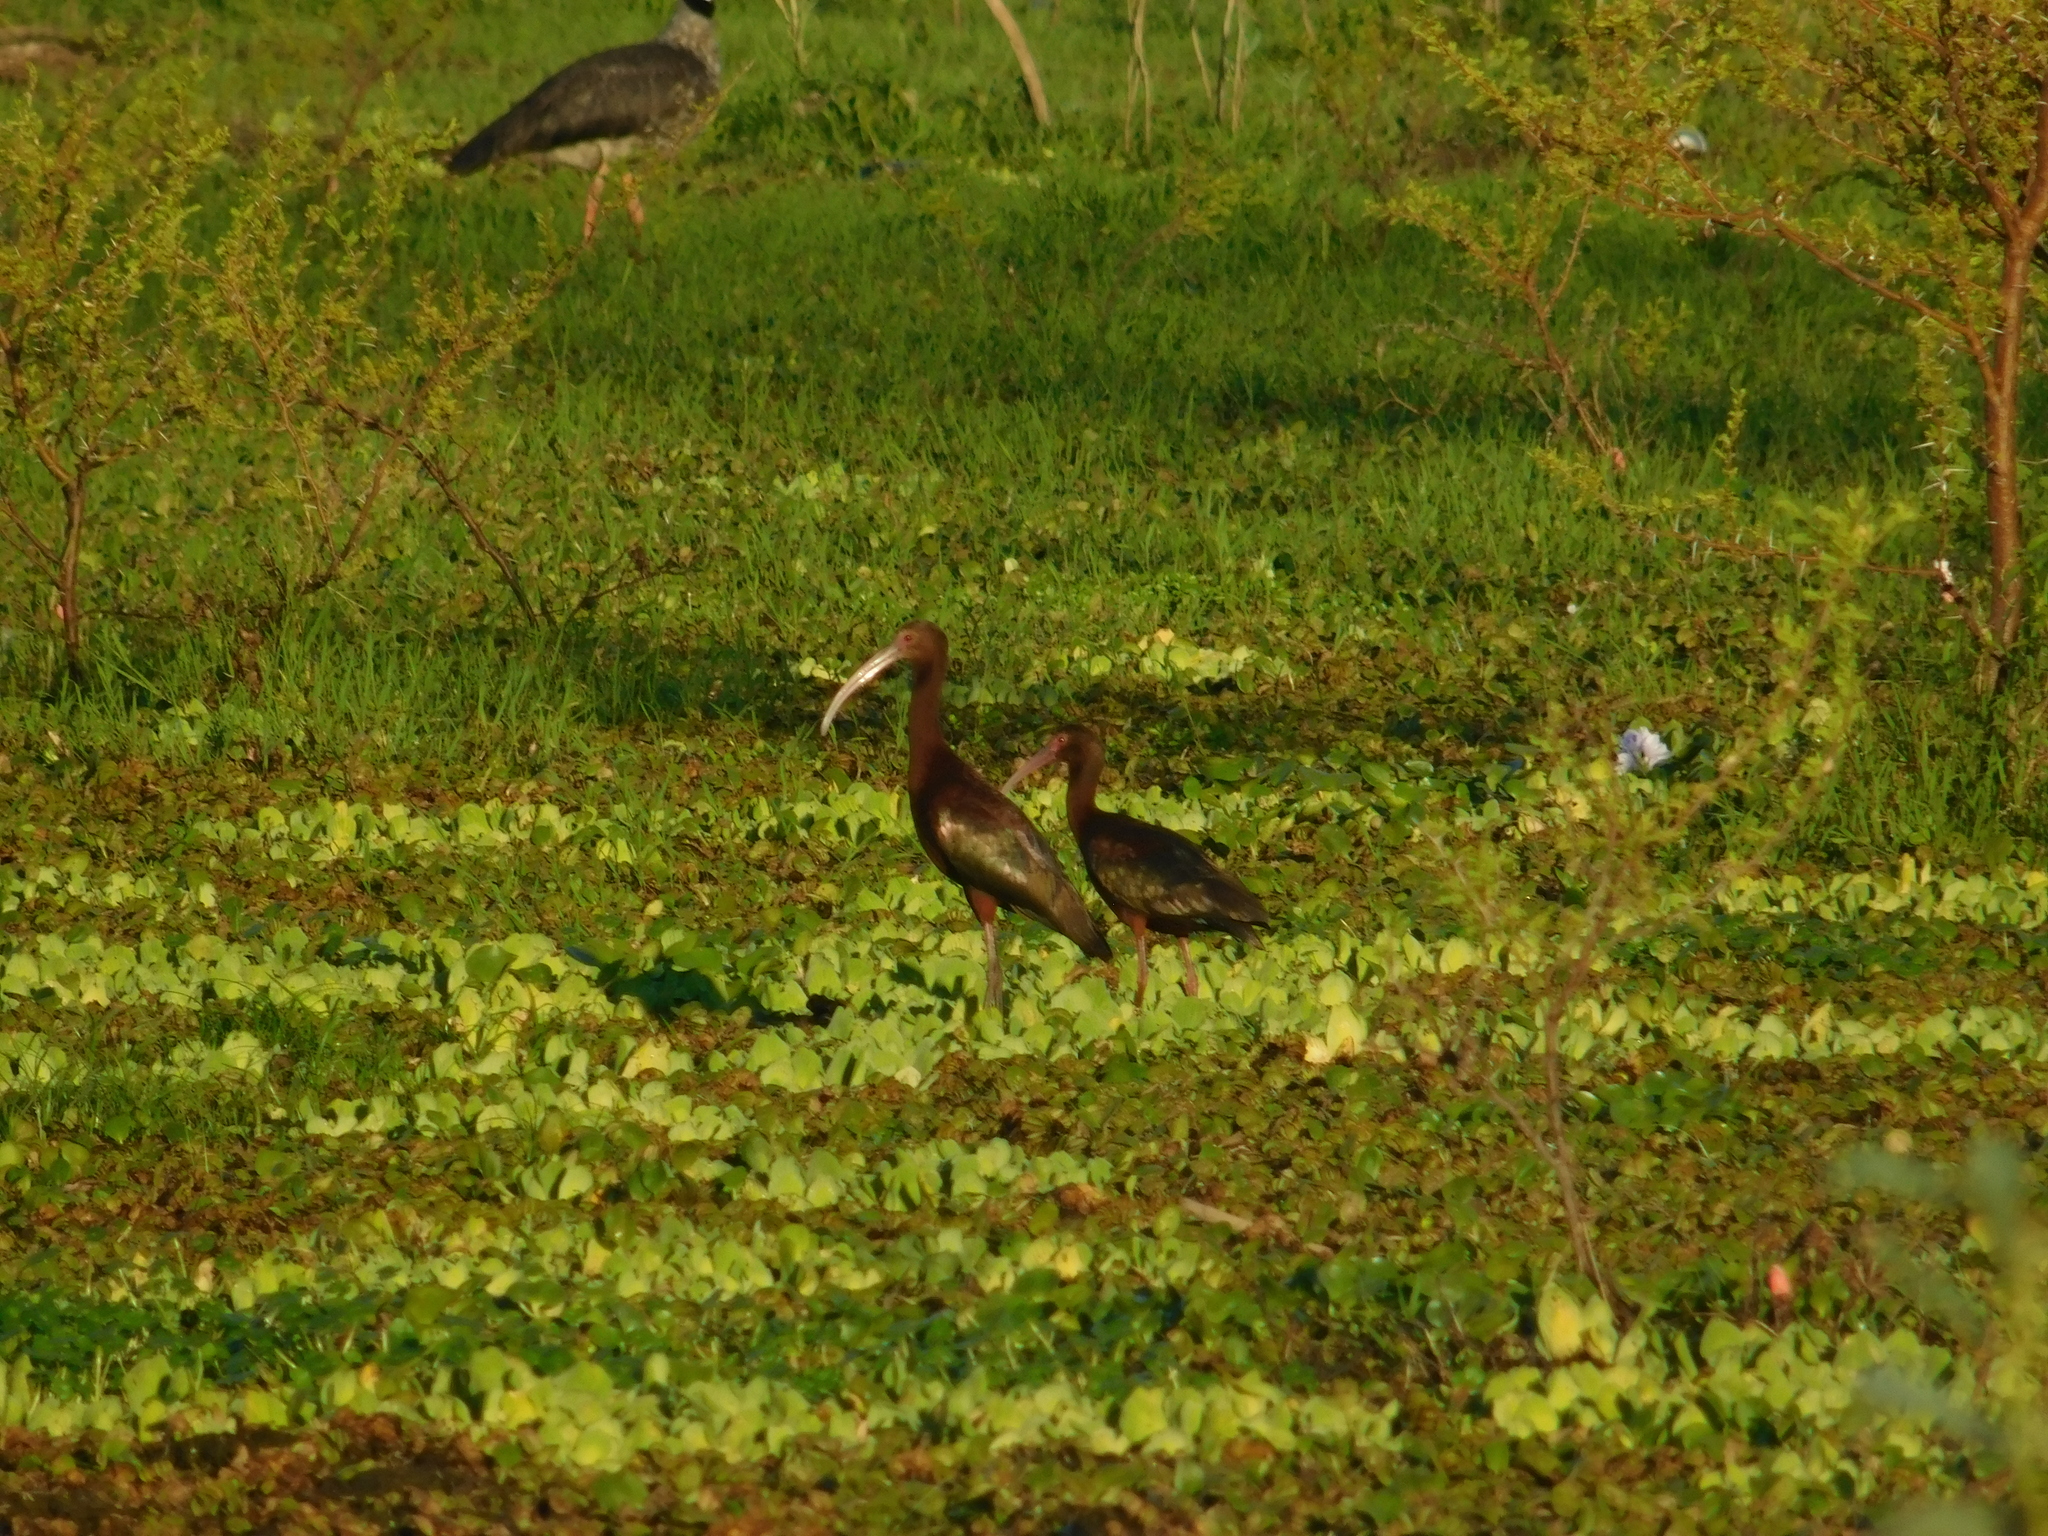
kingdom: Animalia
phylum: Chordata
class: Aves
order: Pelecaniformes
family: Threskiornithidae
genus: Plegadis
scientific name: Plegadis chihi
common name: White-faced ibis
